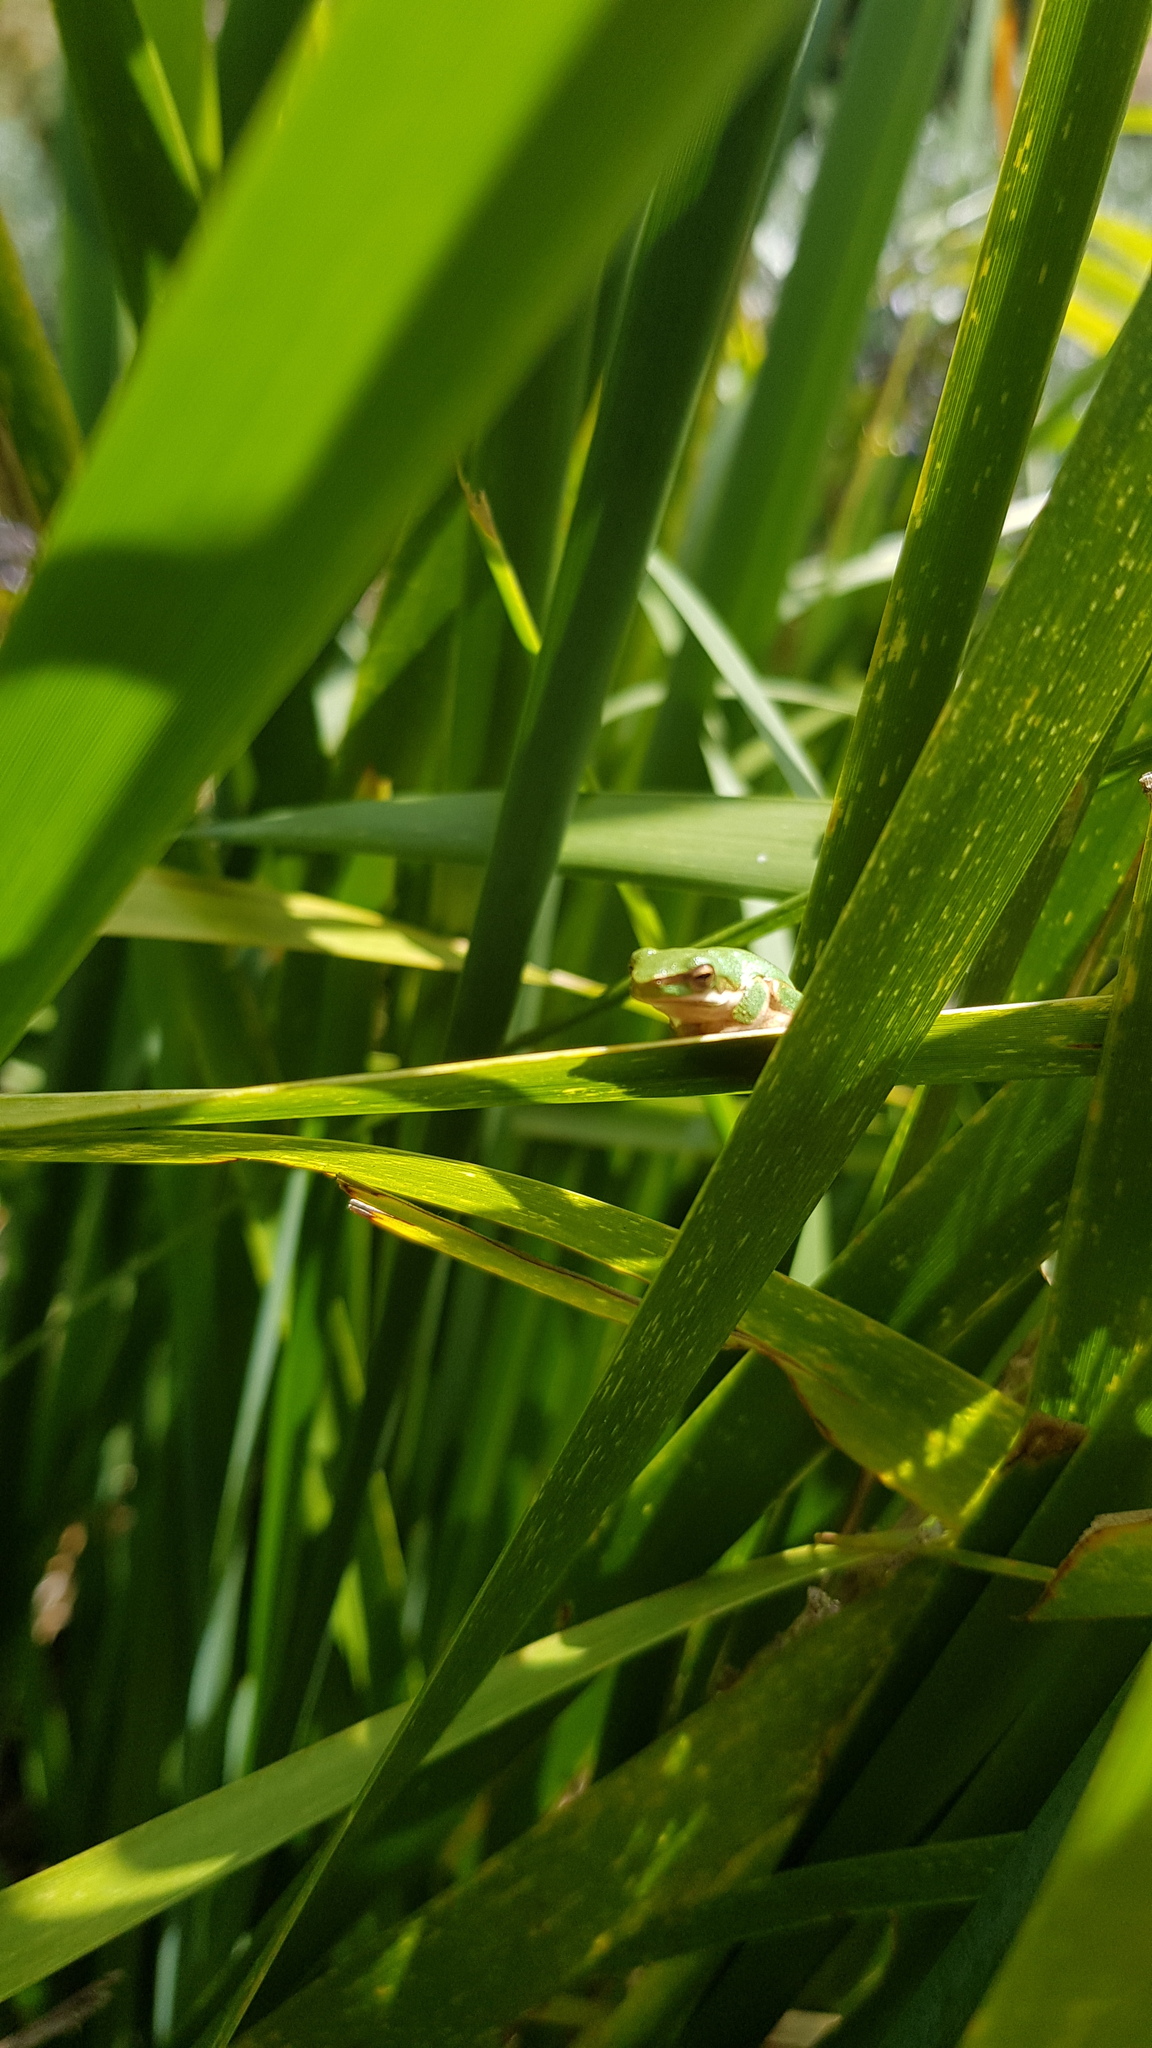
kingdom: Animalia
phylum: Chordata
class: Amphibia
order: Anura
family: Pelodryadidae
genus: Litoria
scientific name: Litoria fallax
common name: Eastern dwarf treefrog
